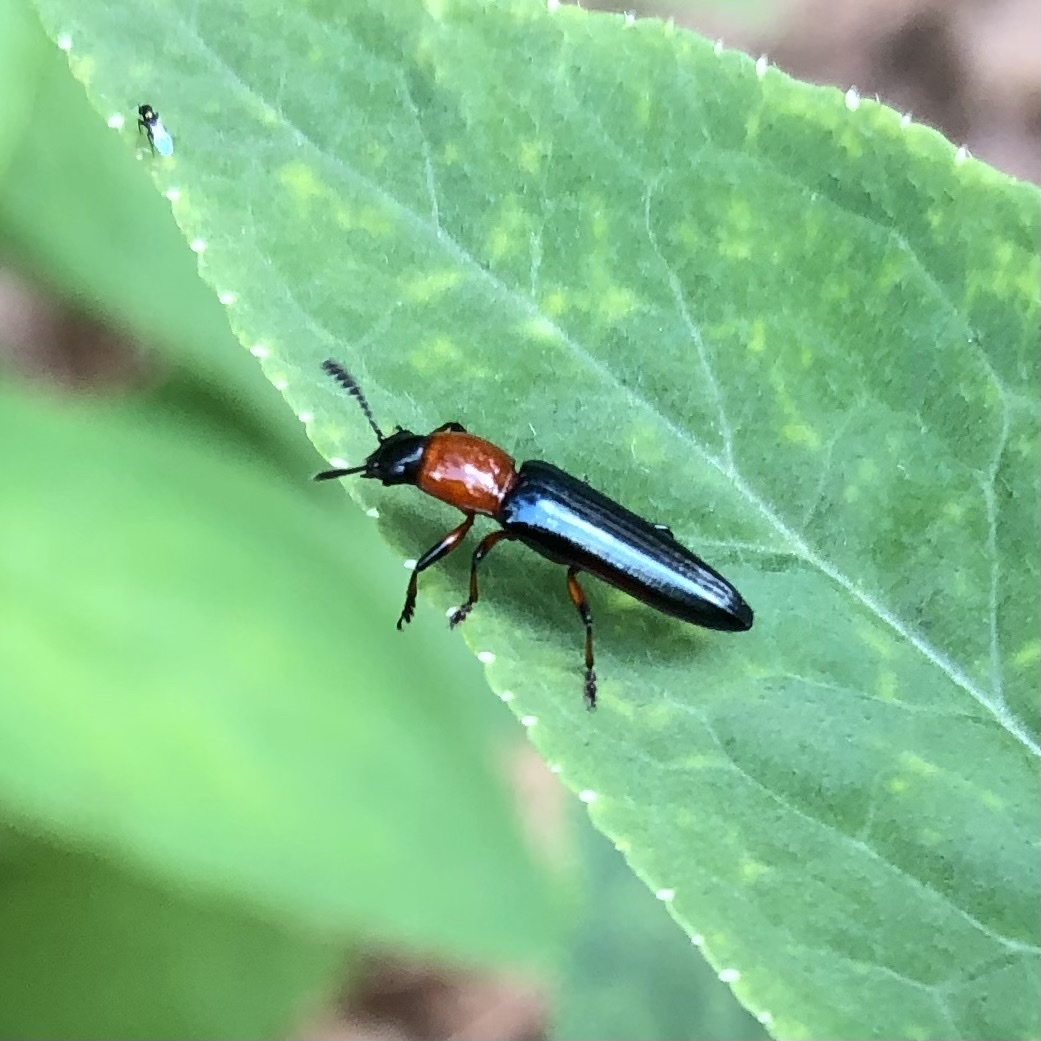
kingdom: Animalia
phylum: Arthropoda
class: Insecta
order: Coleoptera
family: Erotylidae
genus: Languria
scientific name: Languria angustata
